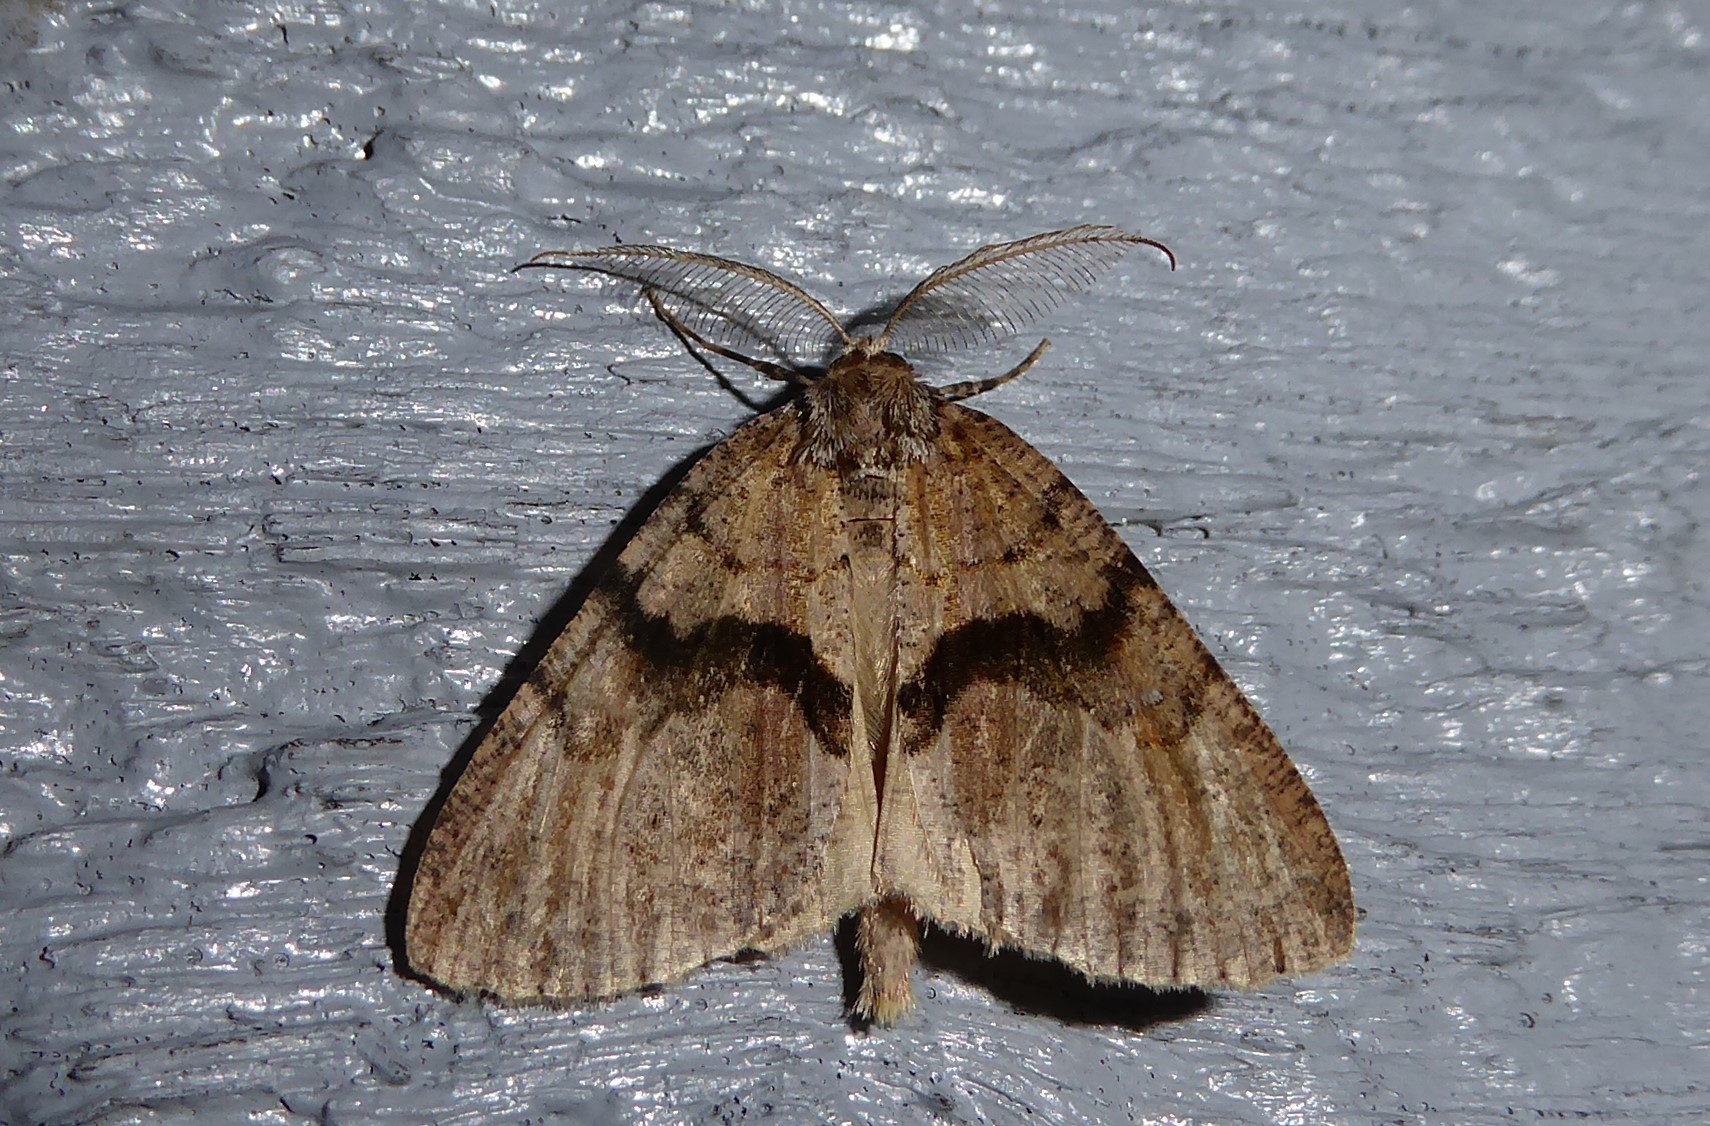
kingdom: Animalia
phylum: Arthropoda
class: Insecta
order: Lepidoptera
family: Geometridae
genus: Pseudocoremia
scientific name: Pseudocoremia suavis
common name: Common forest looper
